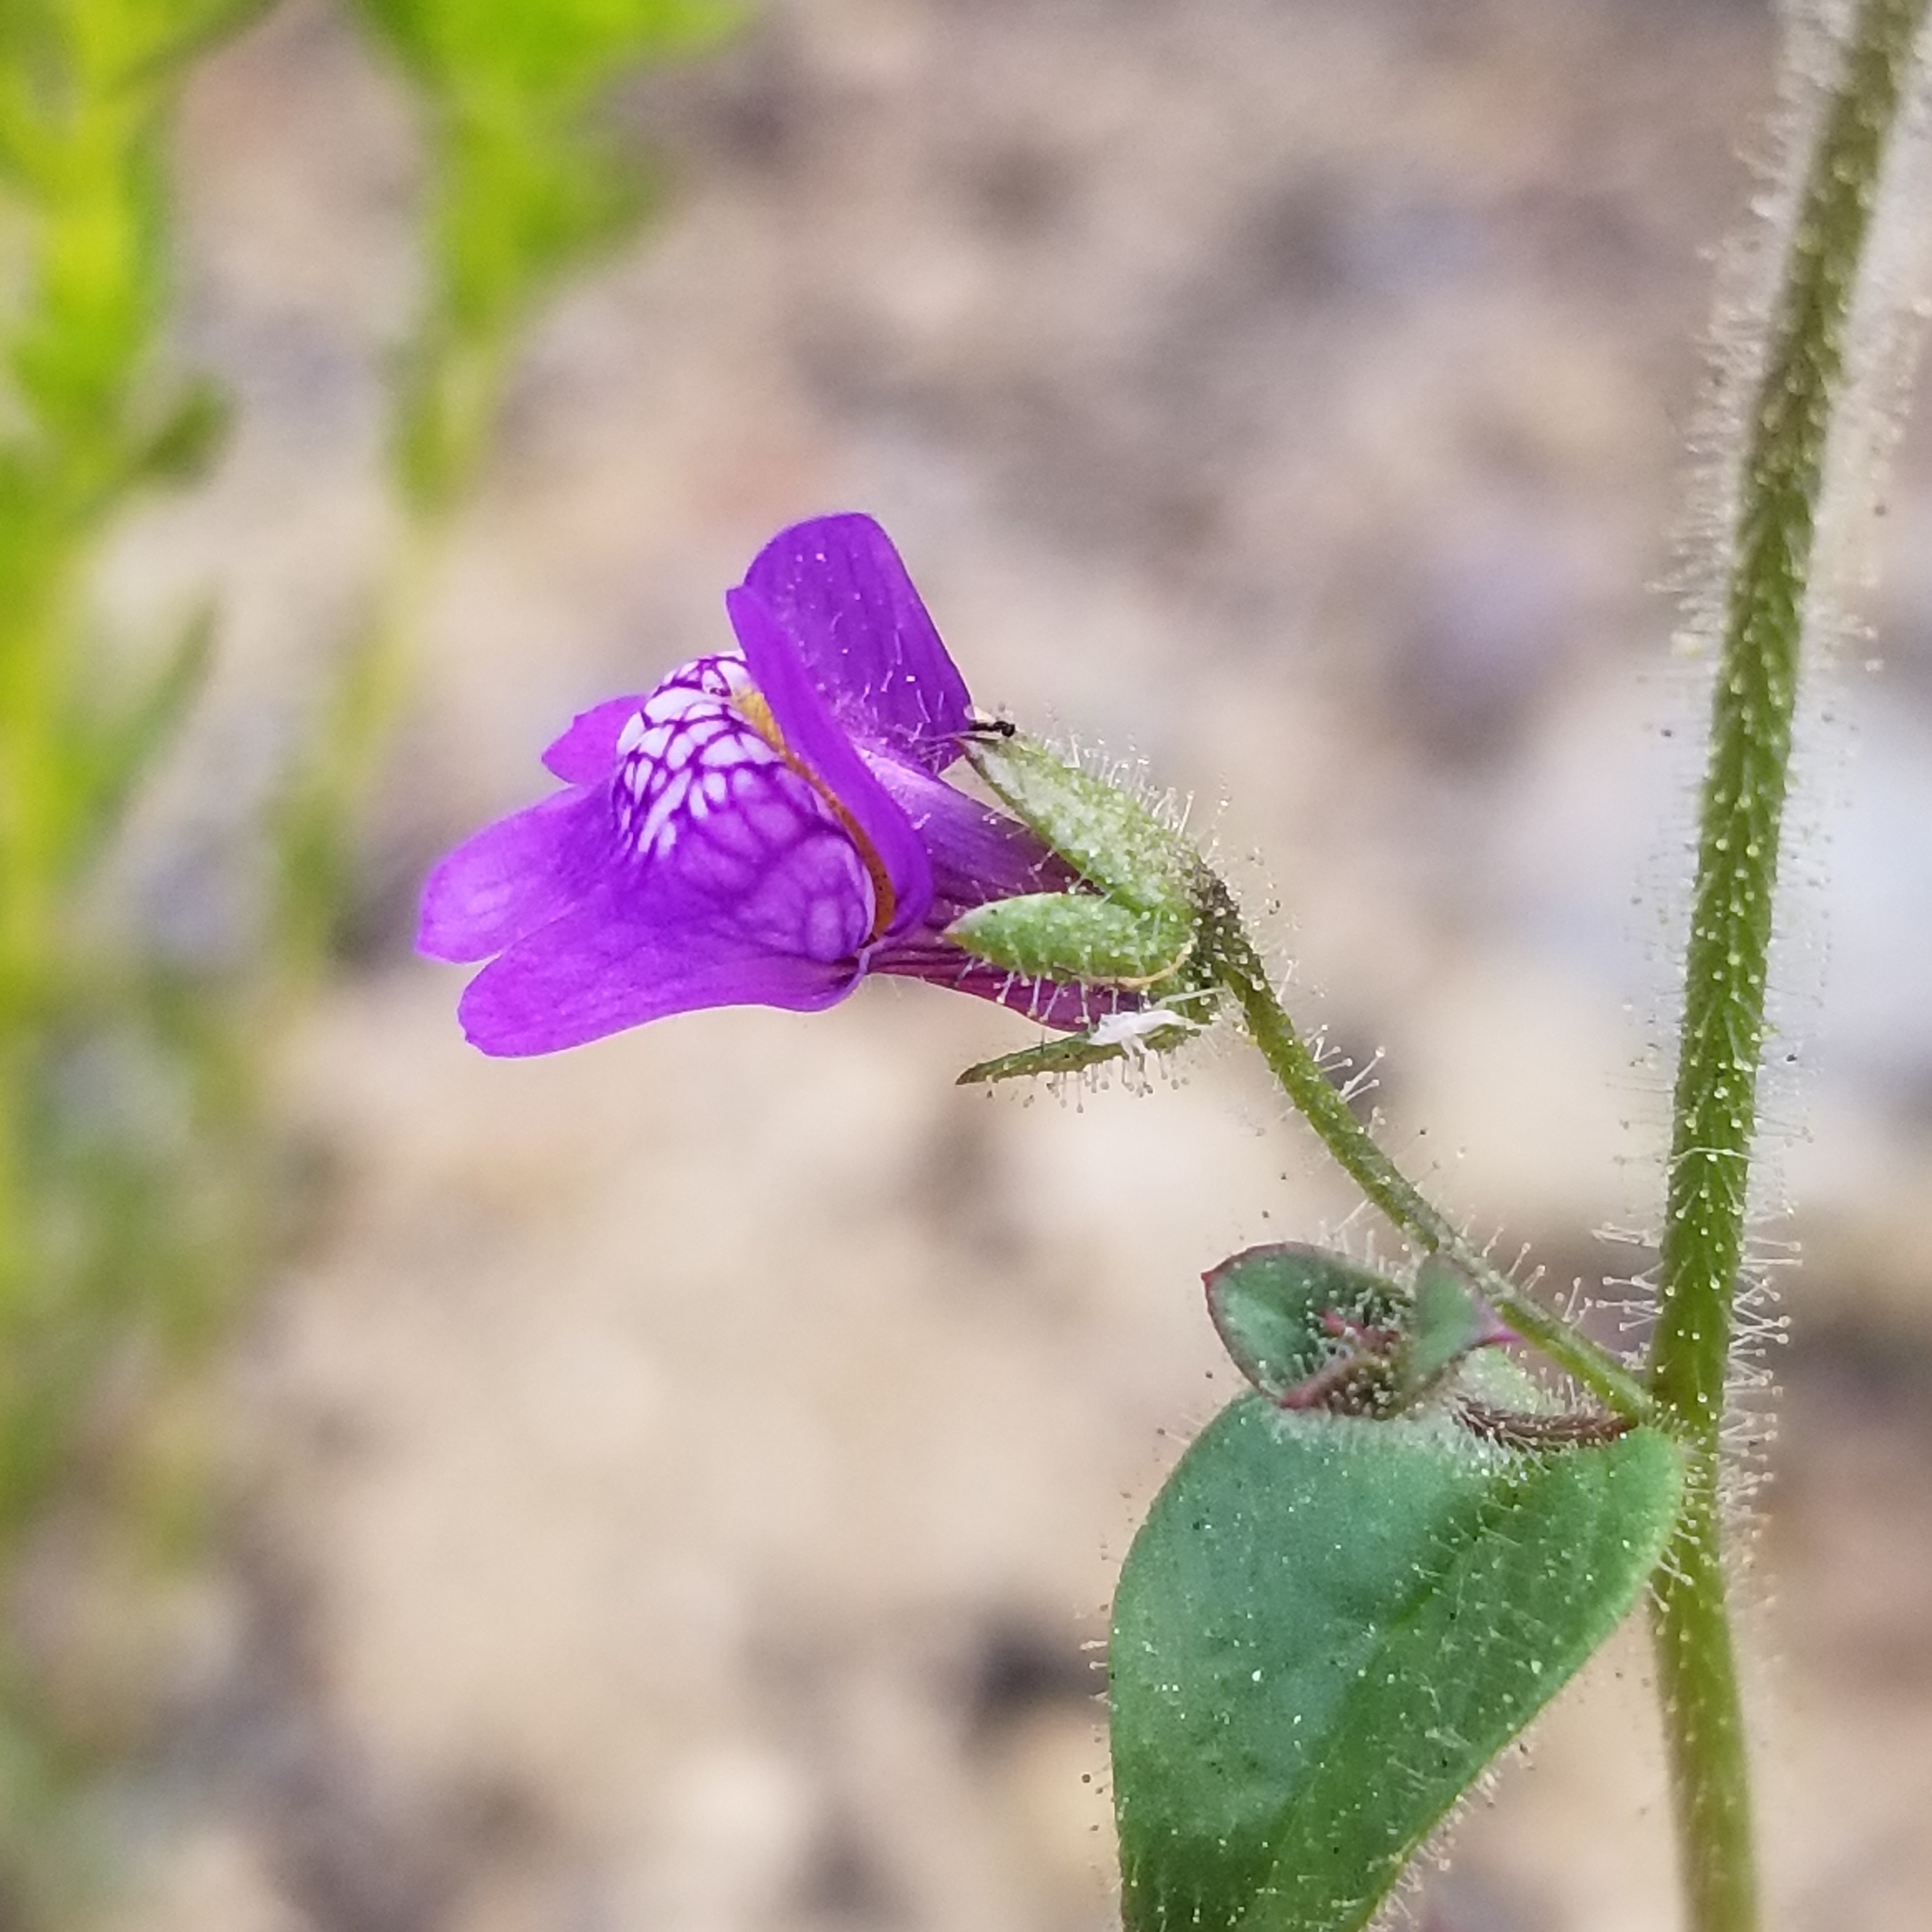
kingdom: Plantae
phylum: Tracheophyta
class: Magnoliopsida
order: Lamiales
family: Plantaginaceae
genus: Sairocarpus
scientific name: Sairocarpus nuttallianus
